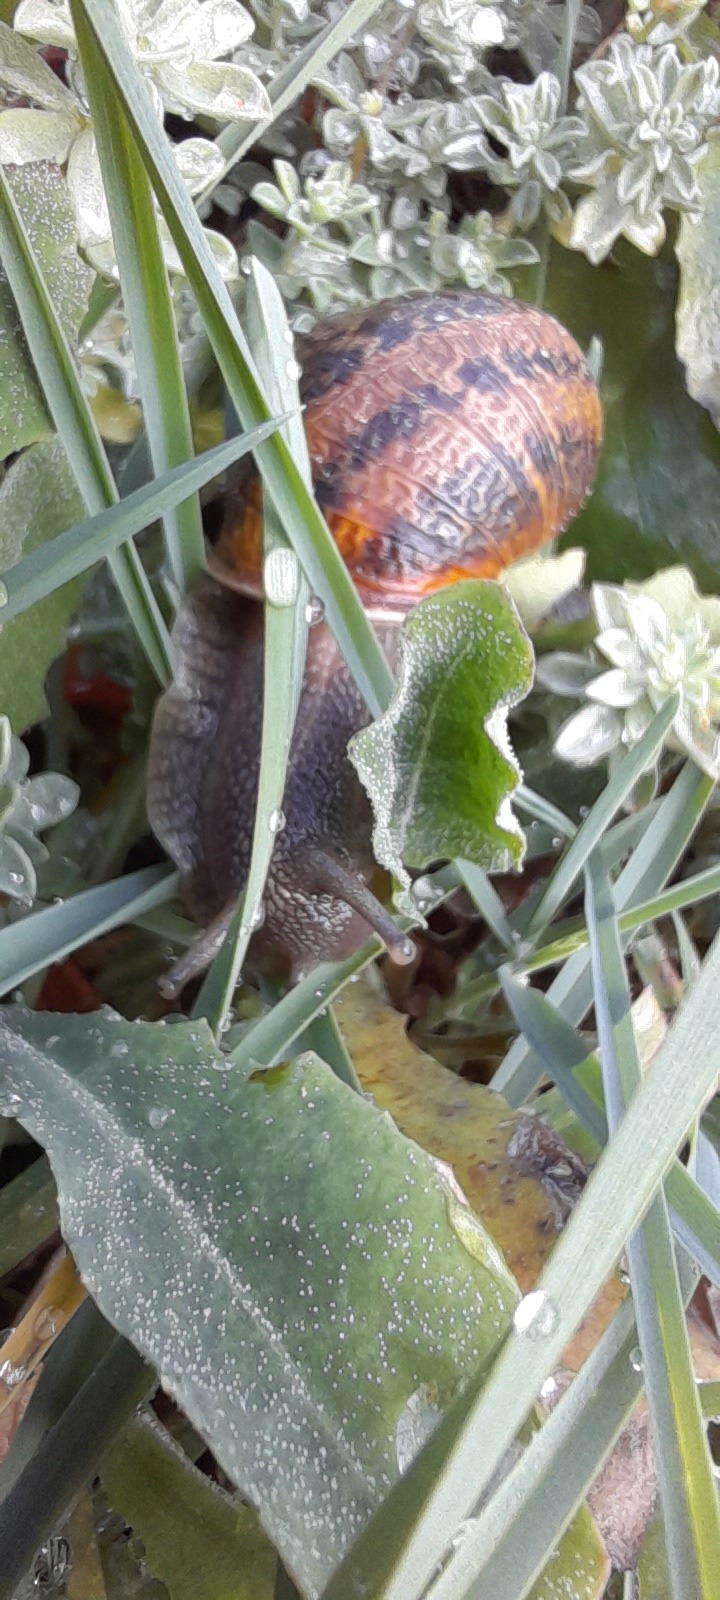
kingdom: Animalia
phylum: Mollusca
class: Gastropoda
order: Stylommatophora
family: Helicidae
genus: Cornu
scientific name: Cornu aspersum
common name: Brown garden snail
